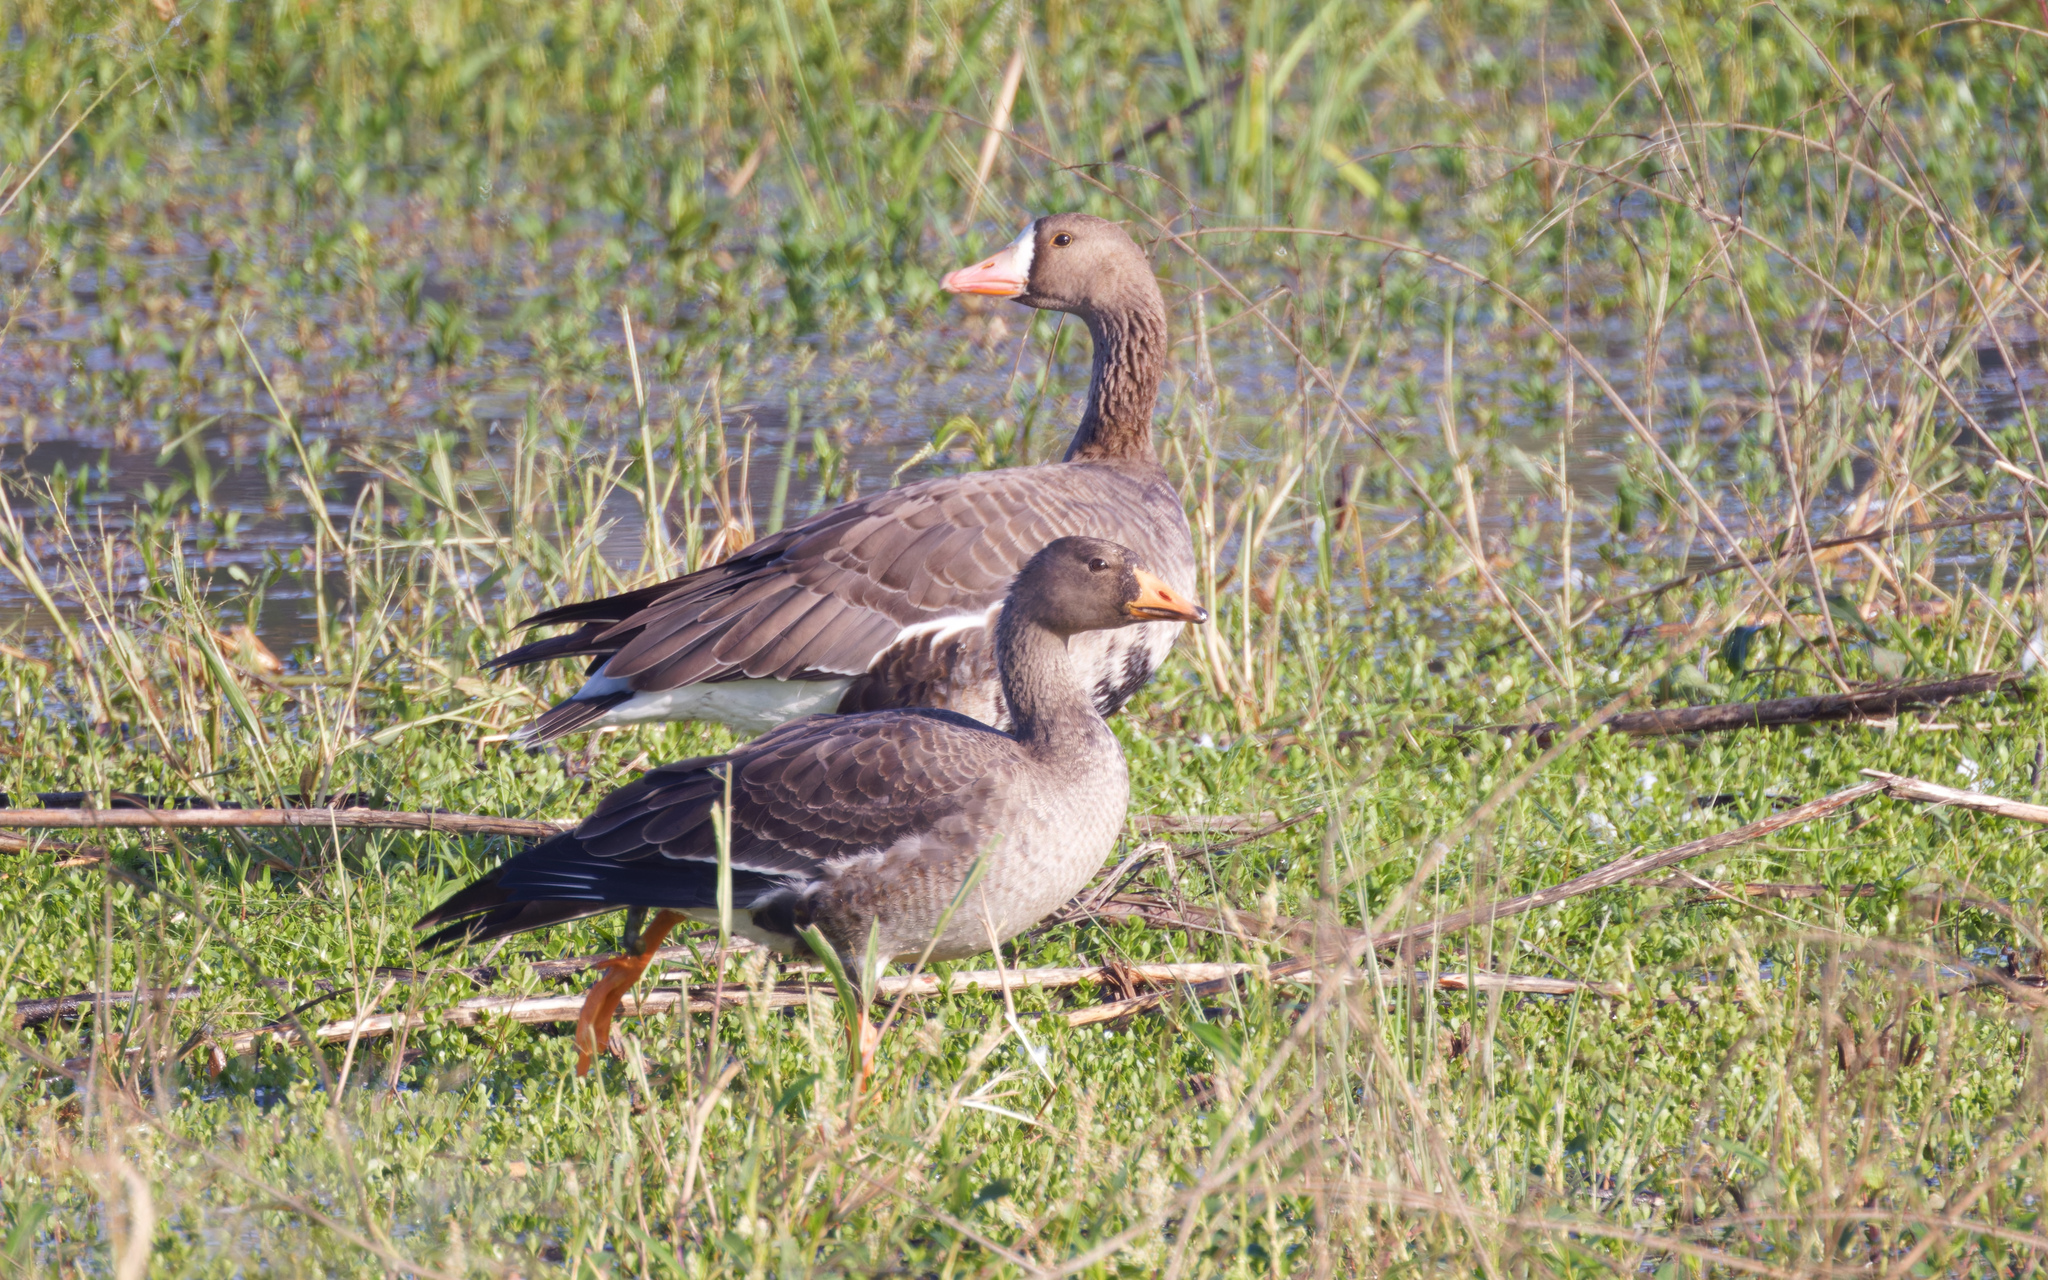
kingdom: Animalia
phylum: Chordata
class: Aves
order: Anseriformes
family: Anatidae
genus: Anser
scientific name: Anser albifrons
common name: Greater white-fronted goose
